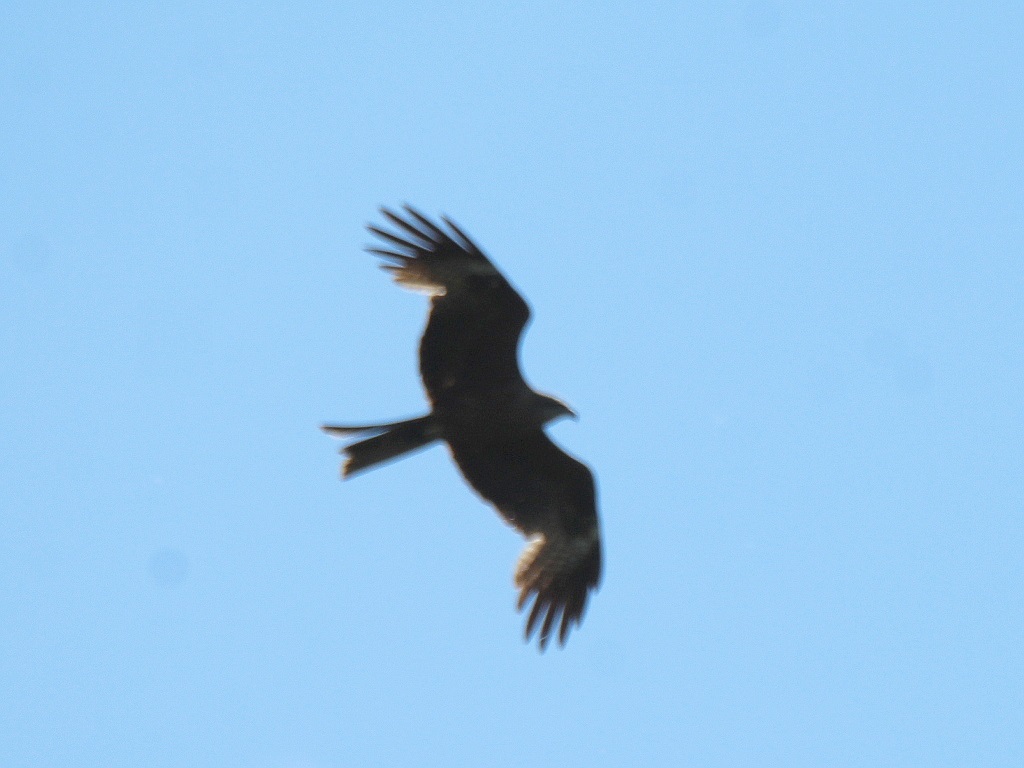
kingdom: Animalia
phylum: Chordata
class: Aves
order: Accipitriformes
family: Accipitridae
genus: Milvus
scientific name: Milvus migrans
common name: Black kite
